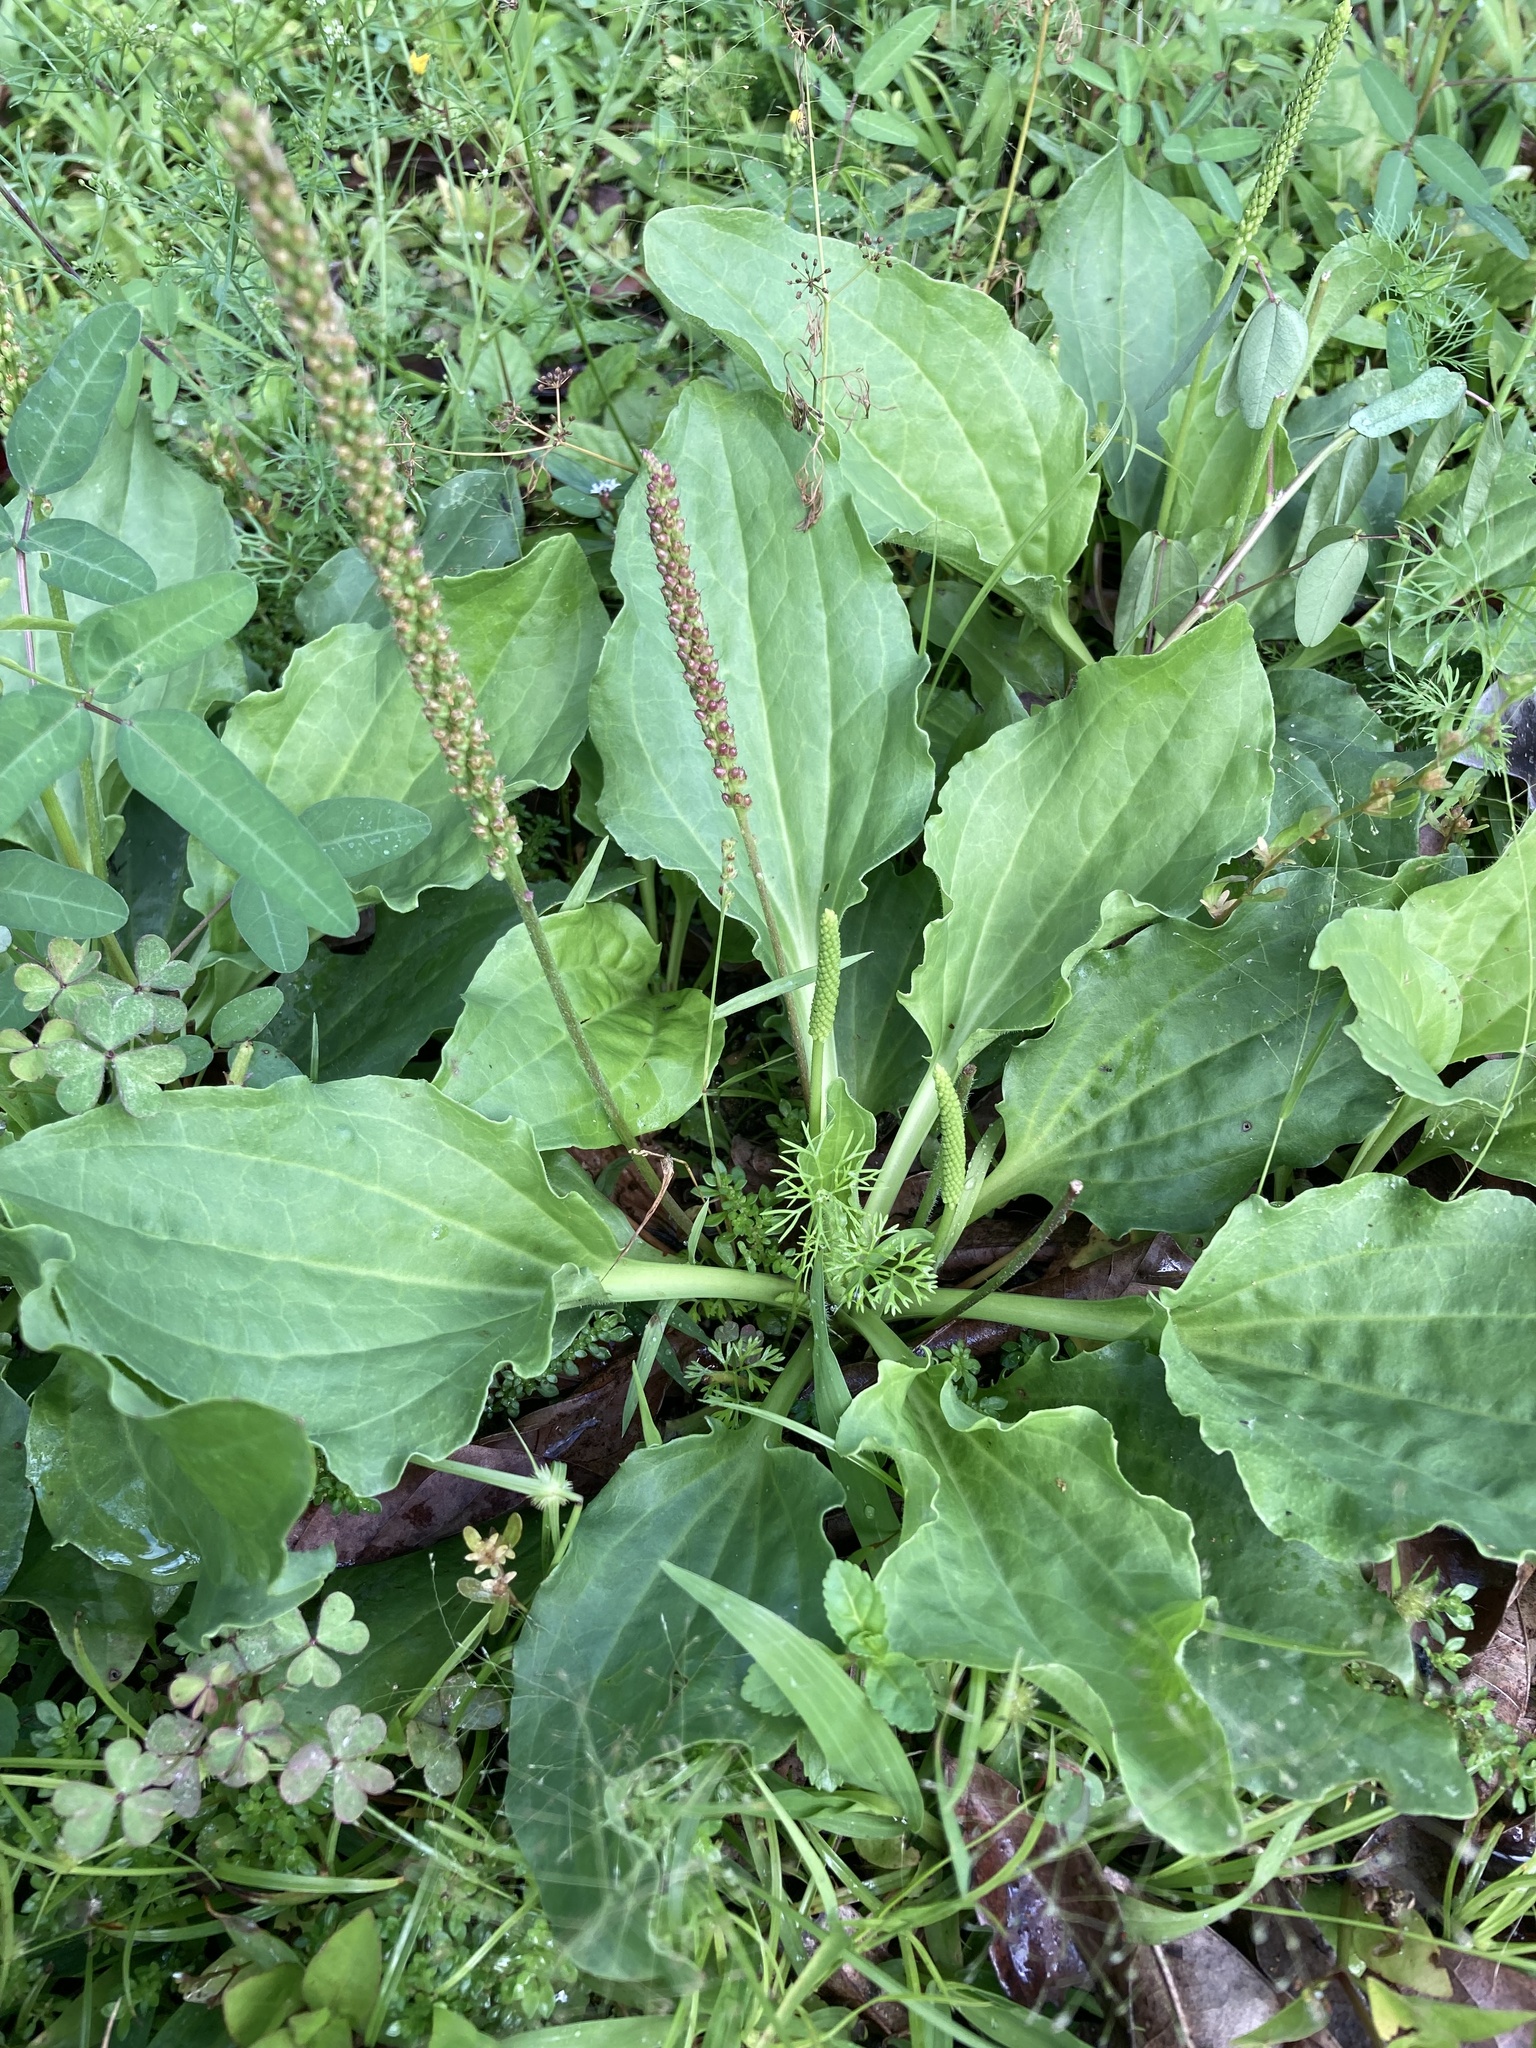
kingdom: Plantae
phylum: Tracheophyta
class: Magnoliopsida
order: Lamiales
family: Plantaginaceae
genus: Plantago
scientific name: Plantago major
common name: Common plantain
